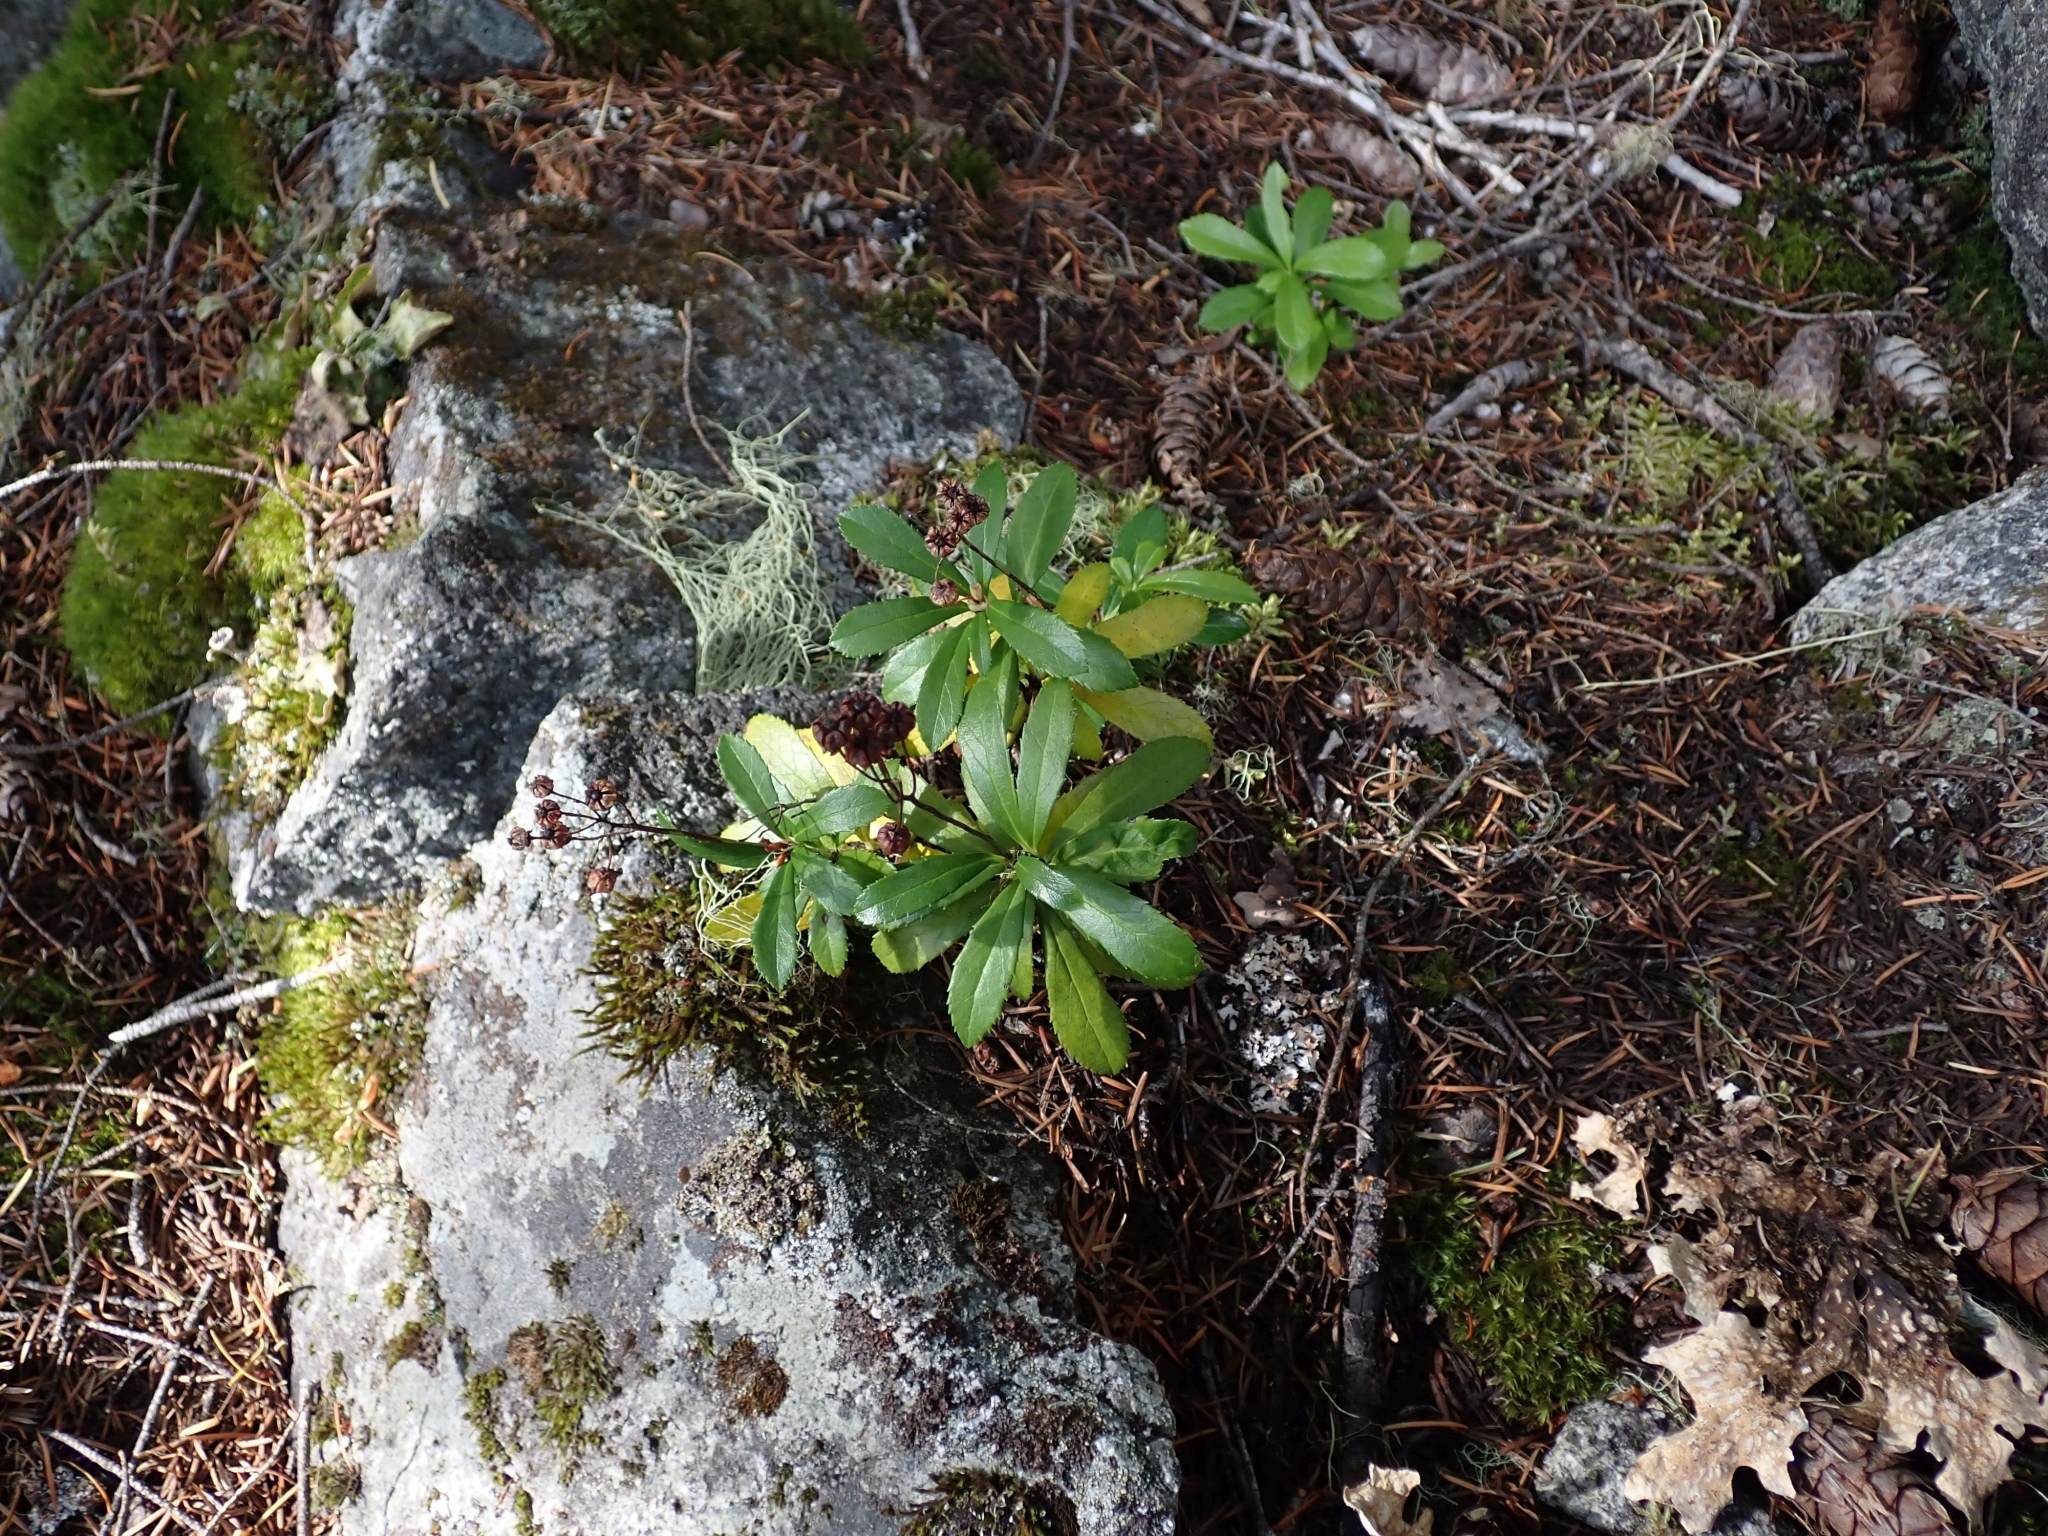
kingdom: Plantae
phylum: Tracheophyta
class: Magnoliopsida
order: Ericales
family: Ericaceae
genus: Chimaphila
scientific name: Chimaphila umbellata
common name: Pipsissewa
